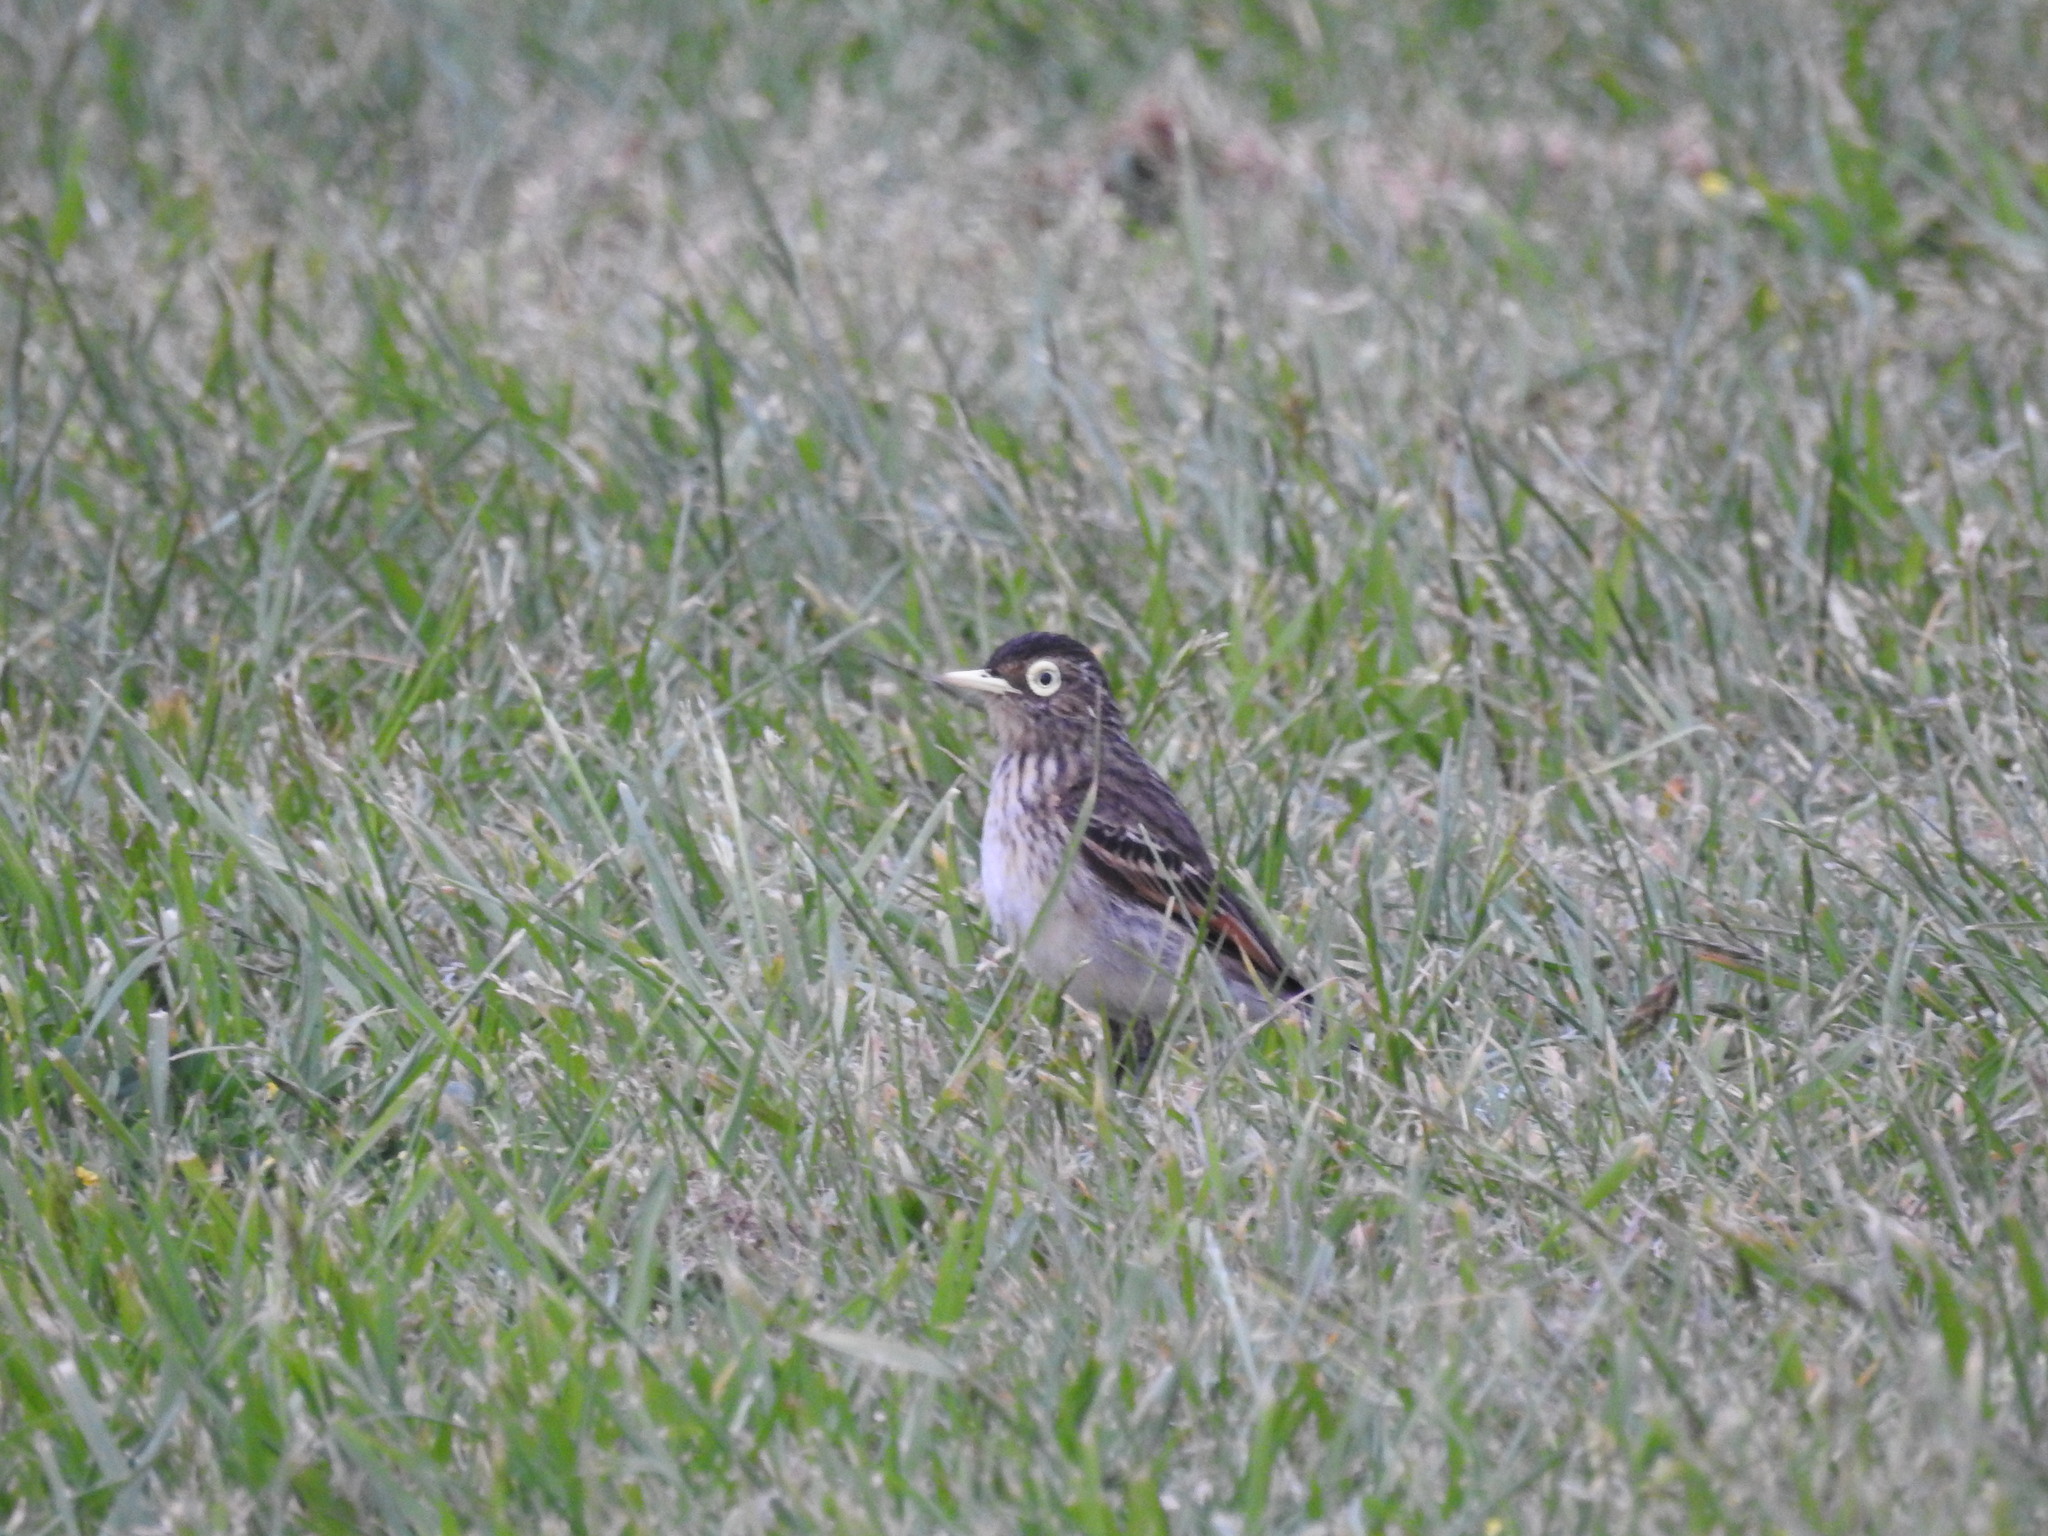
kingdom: Animalia
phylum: Chordata
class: Aves
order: Passeriformes
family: Tyrannidae
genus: Hymenops
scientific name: Hymenops perspicillatus
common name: Spectacled tyrant
